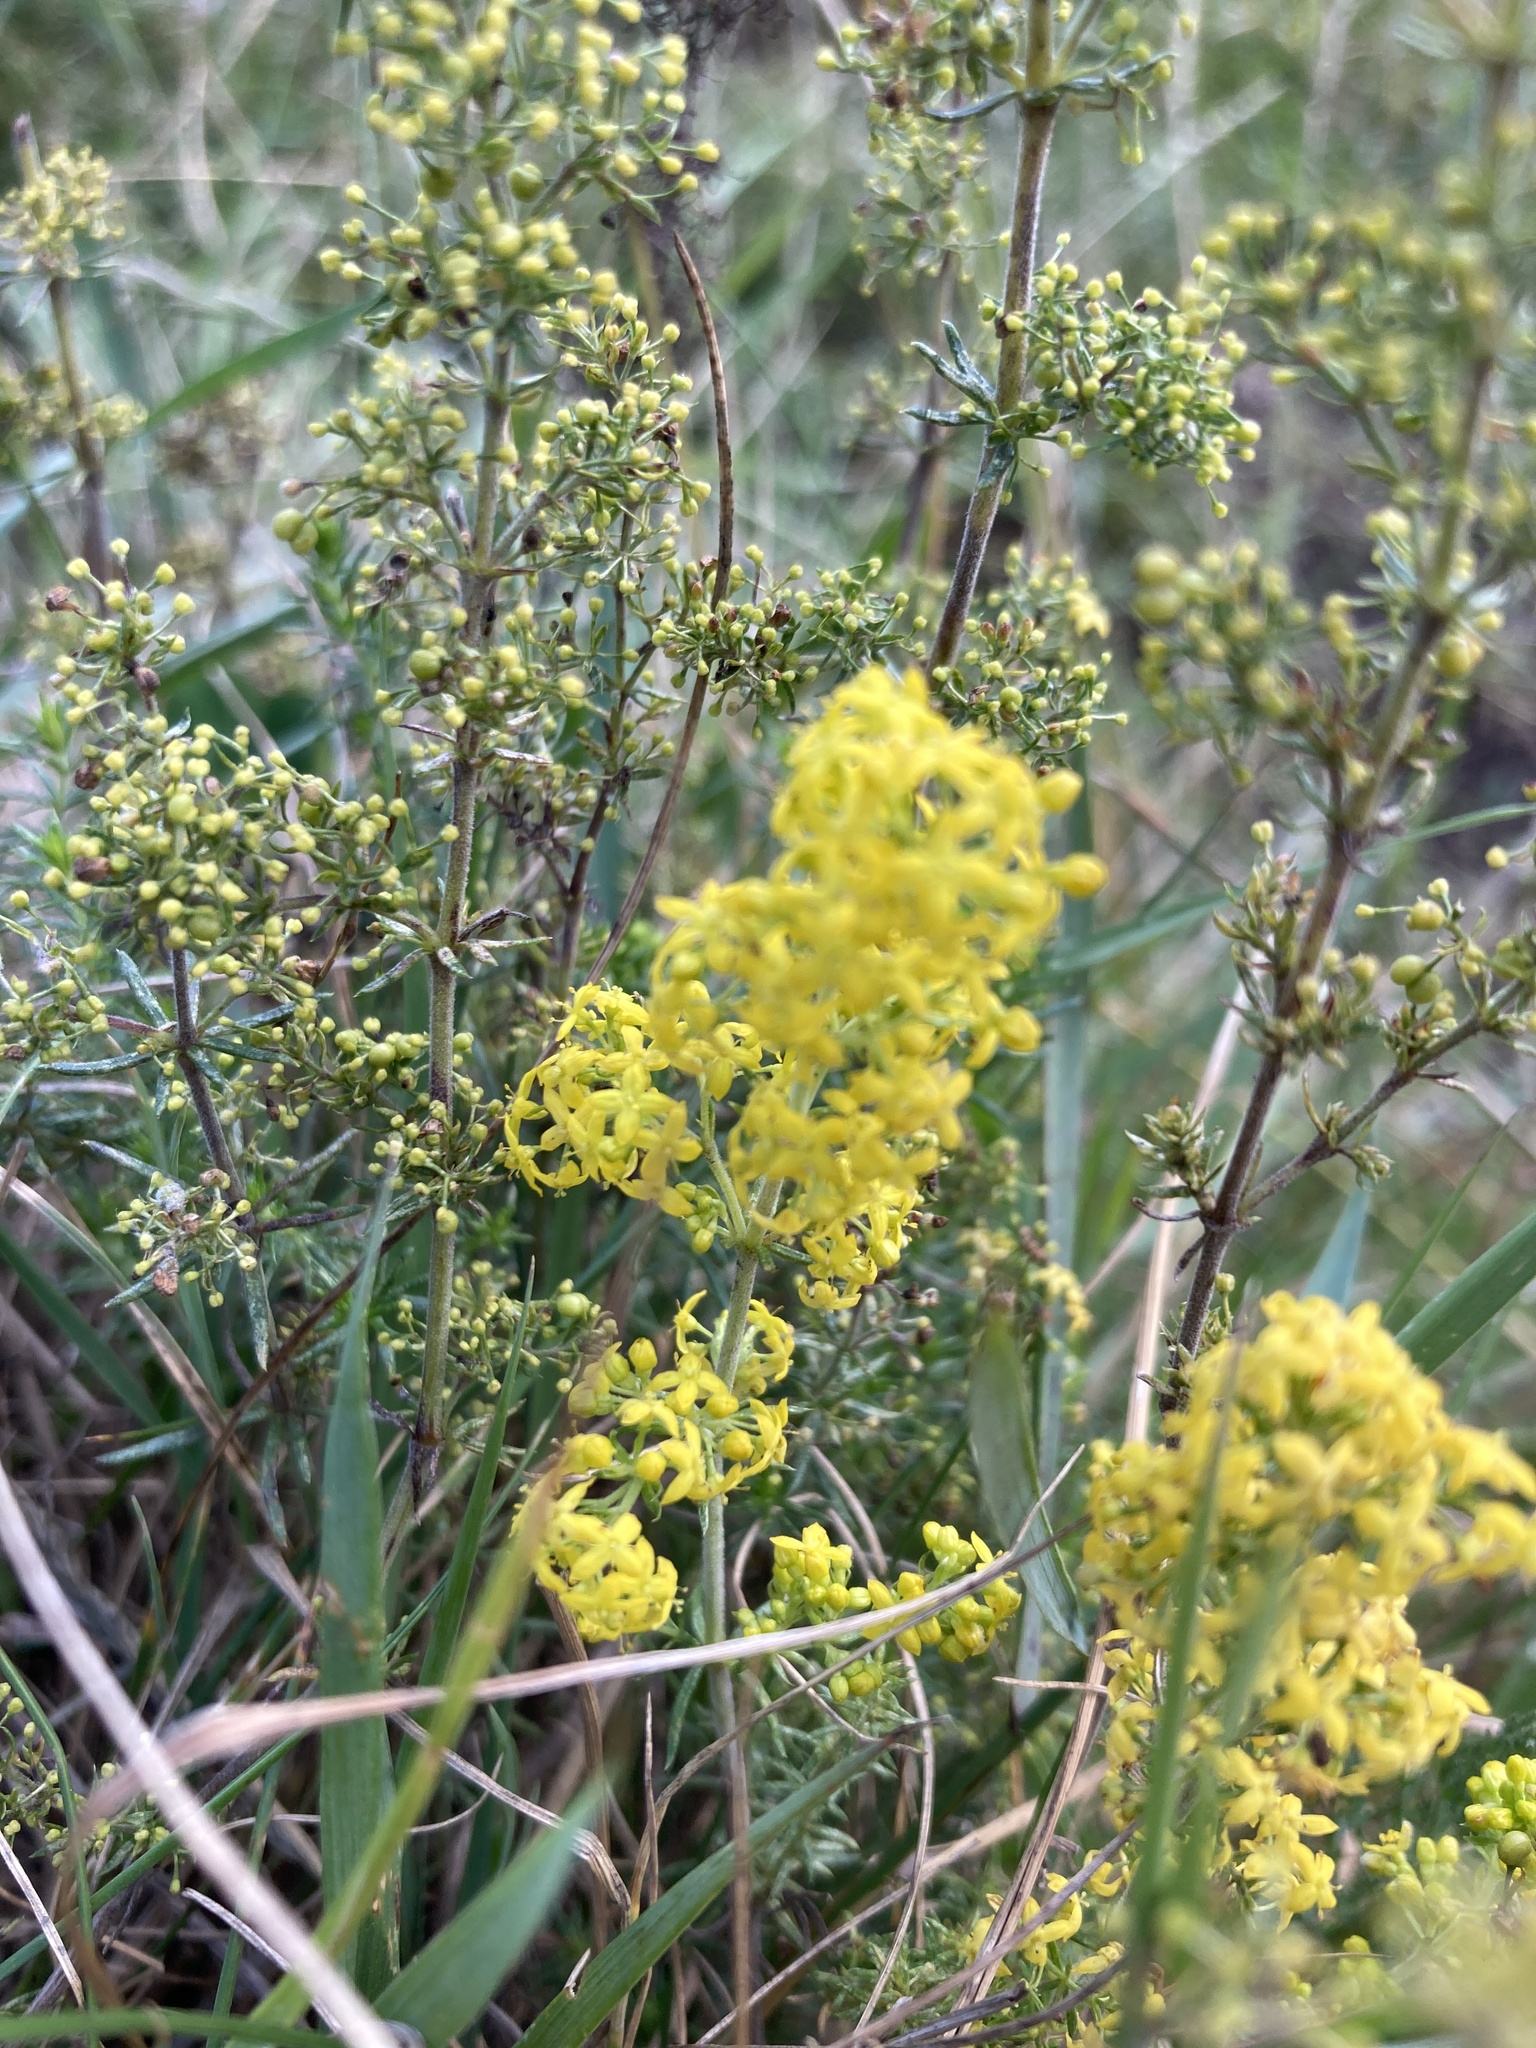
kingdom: Plantae
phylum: Tracheophyta
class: Magnoliopsida
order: Gentianales
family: Rubiaceae
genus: Galium
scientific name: Galium verum
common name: Lady's bedstraw
